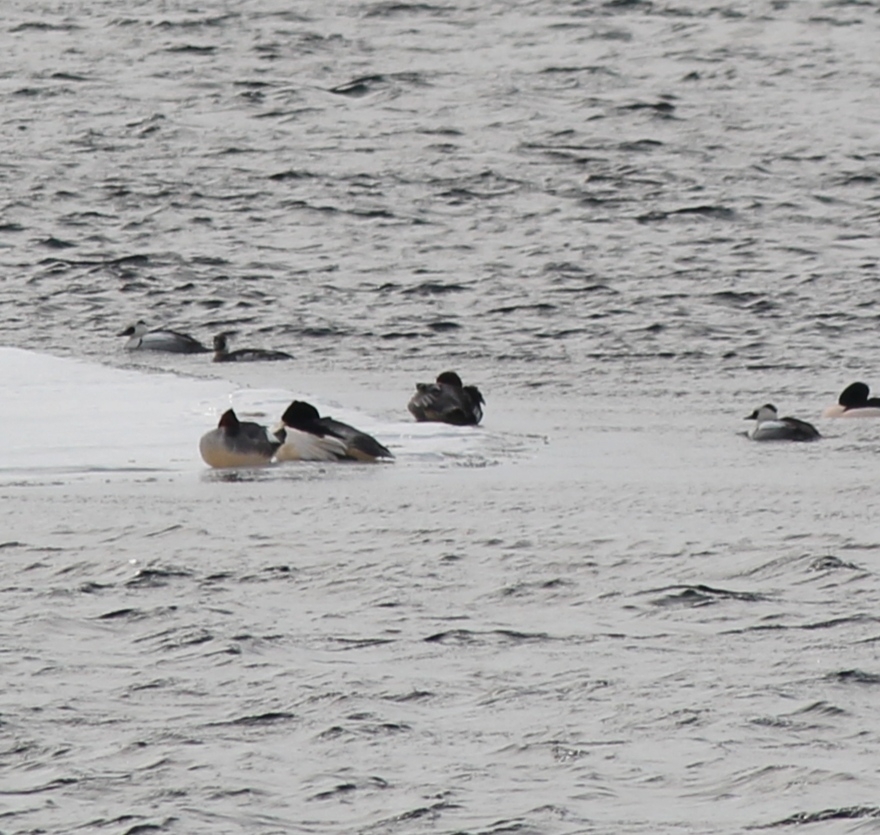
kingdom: Animalia
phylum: Chordata
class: Aves
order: Anseriformes
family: Anatidae
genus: Mergellus
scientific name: Mergellus albellus
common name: Smew
